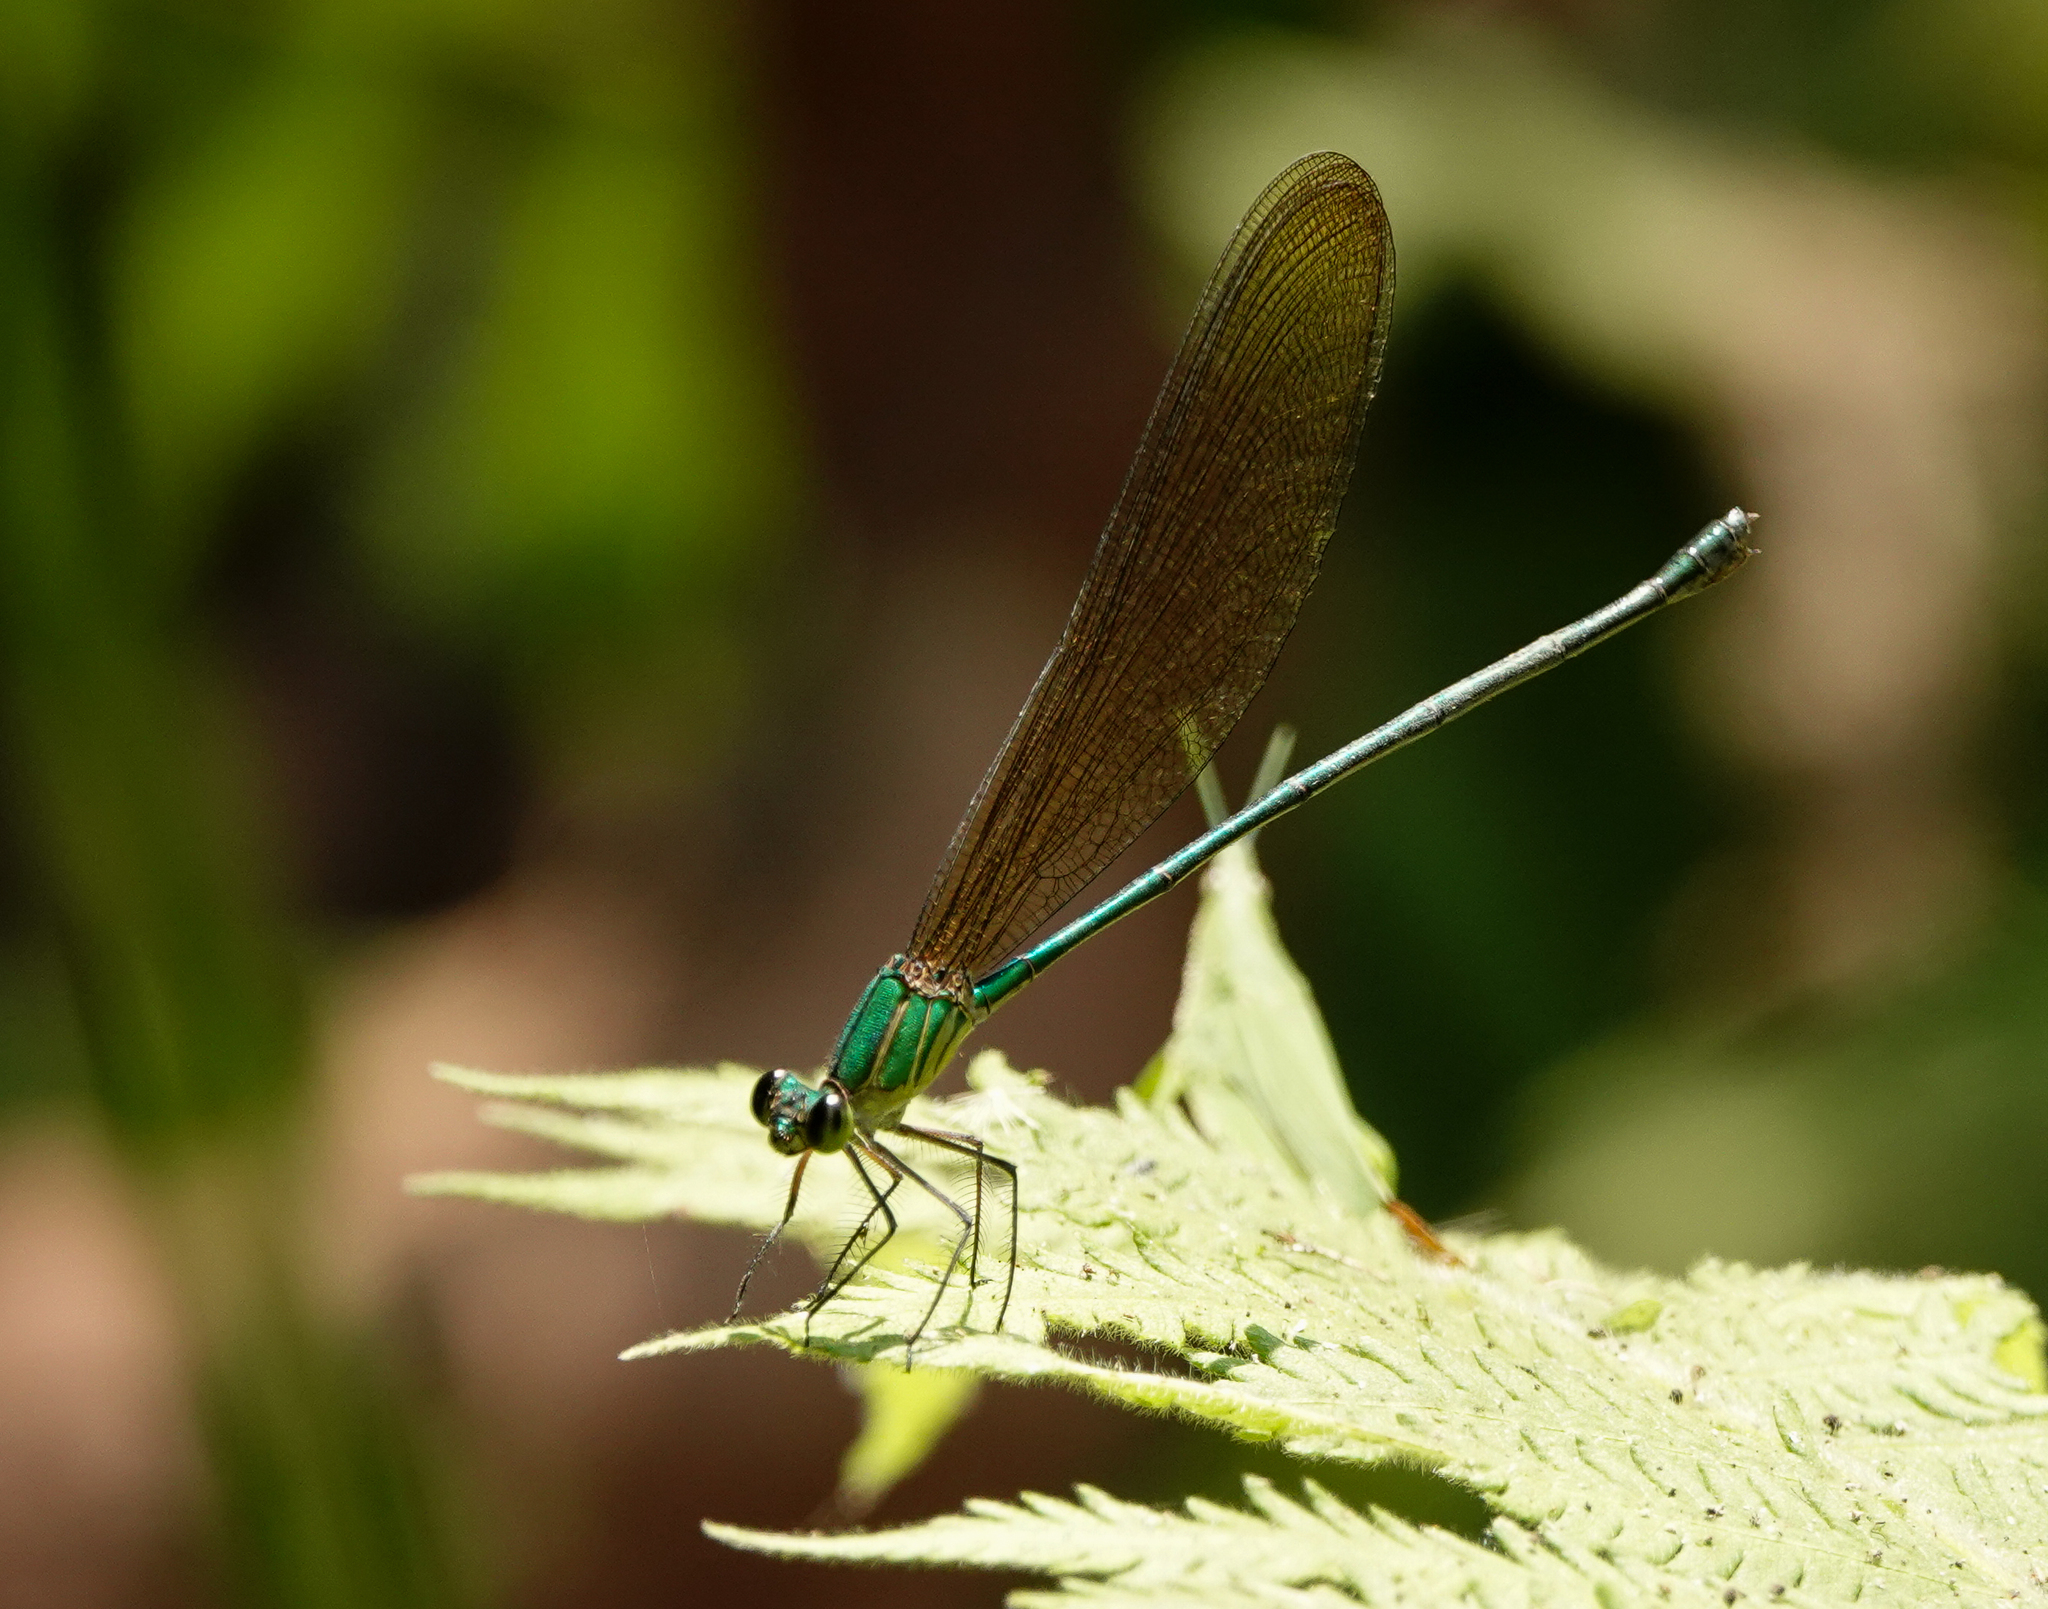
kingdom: Animalia
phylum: Arthropoda
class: Insecta
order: Odonata
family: Calopterygidae
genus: Vestalis
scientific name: Vestalis gracilis
